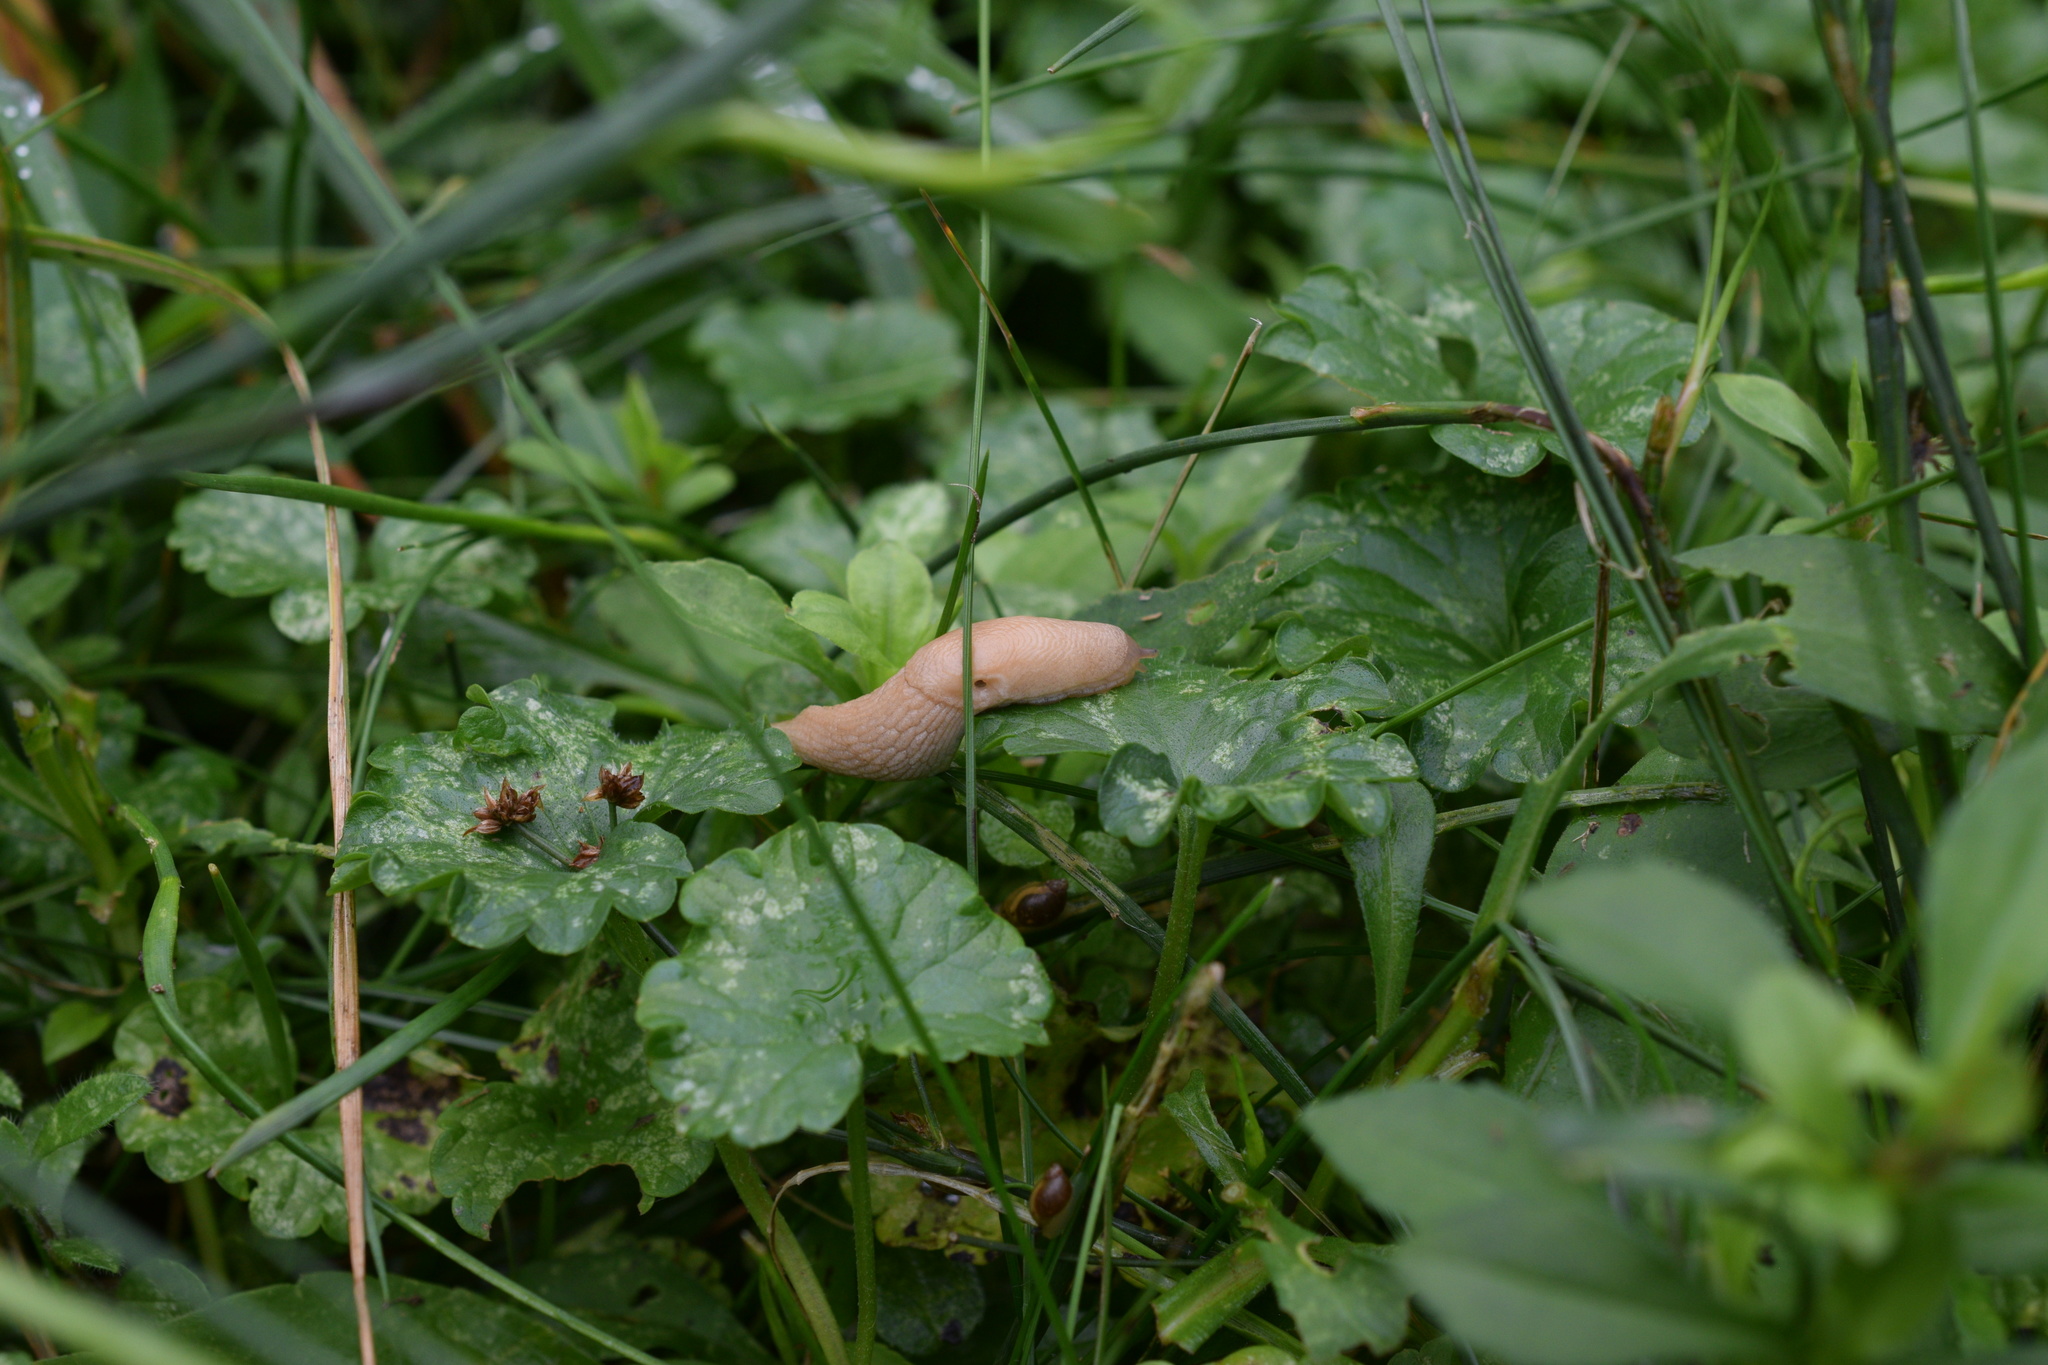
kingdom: Animalia
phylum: Mollusca
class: Gastropoda
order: Stylommatophora
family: Agriolimacidae
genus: Deroceras
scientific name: Deroceras reticulatum
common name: Gray field slug
